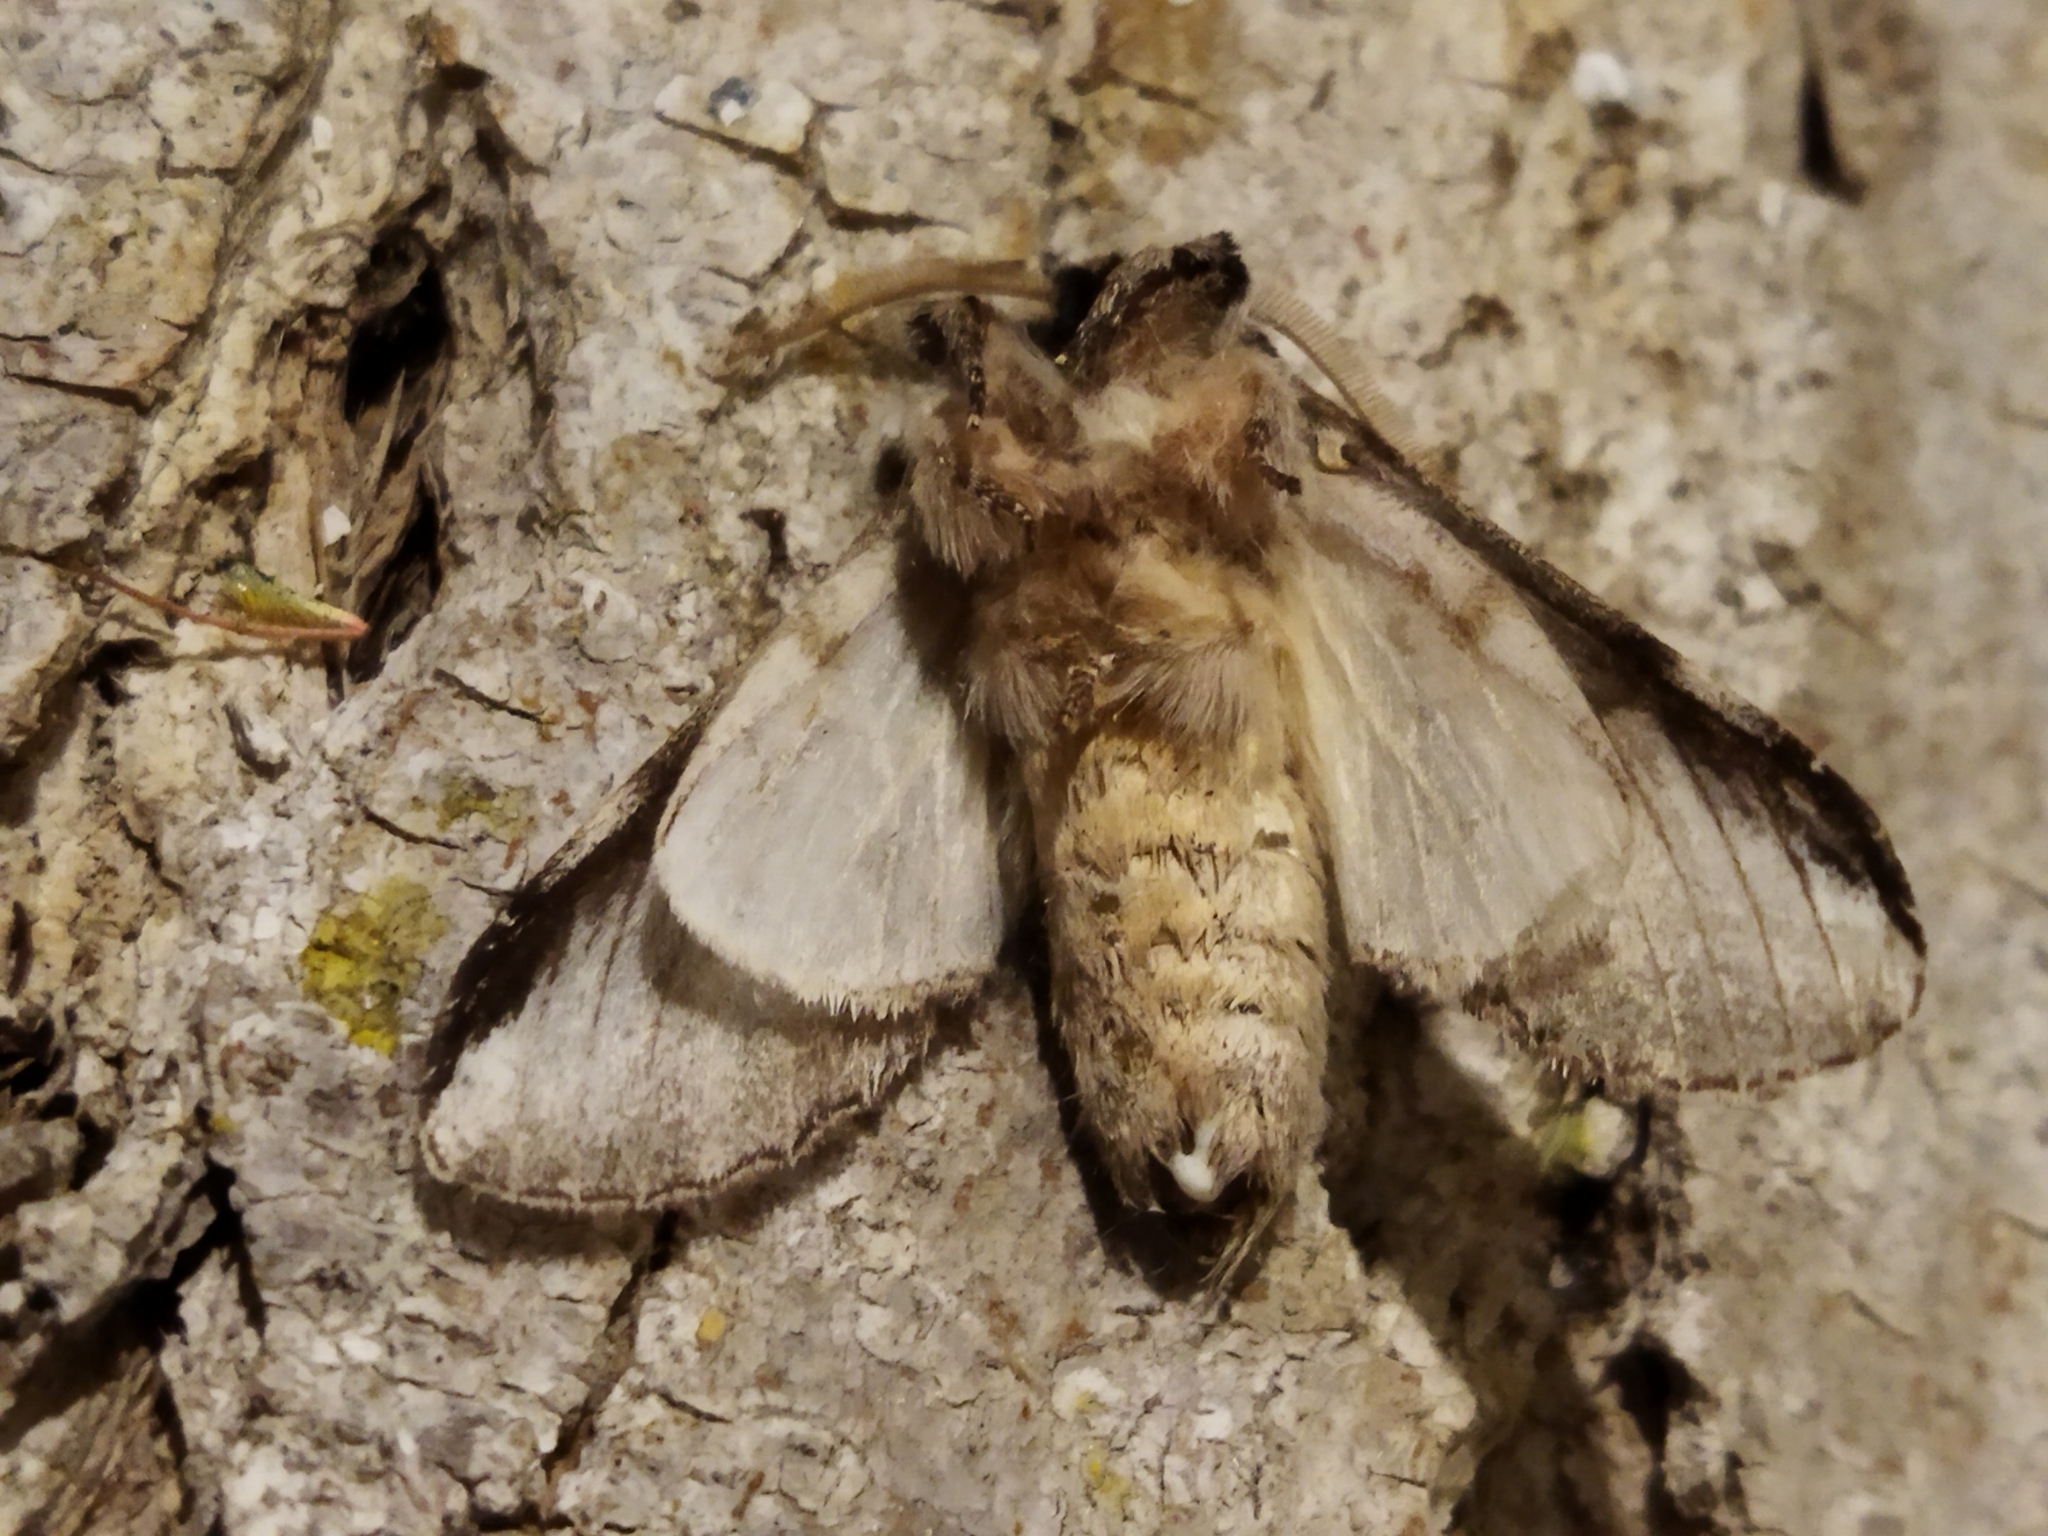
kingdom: Animalia
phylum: Arthropoda
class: Insecta
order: Lepidoptera
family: Notodontidae
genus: Pheosia
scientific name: Pheosia tremula
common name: Swallow prominent
